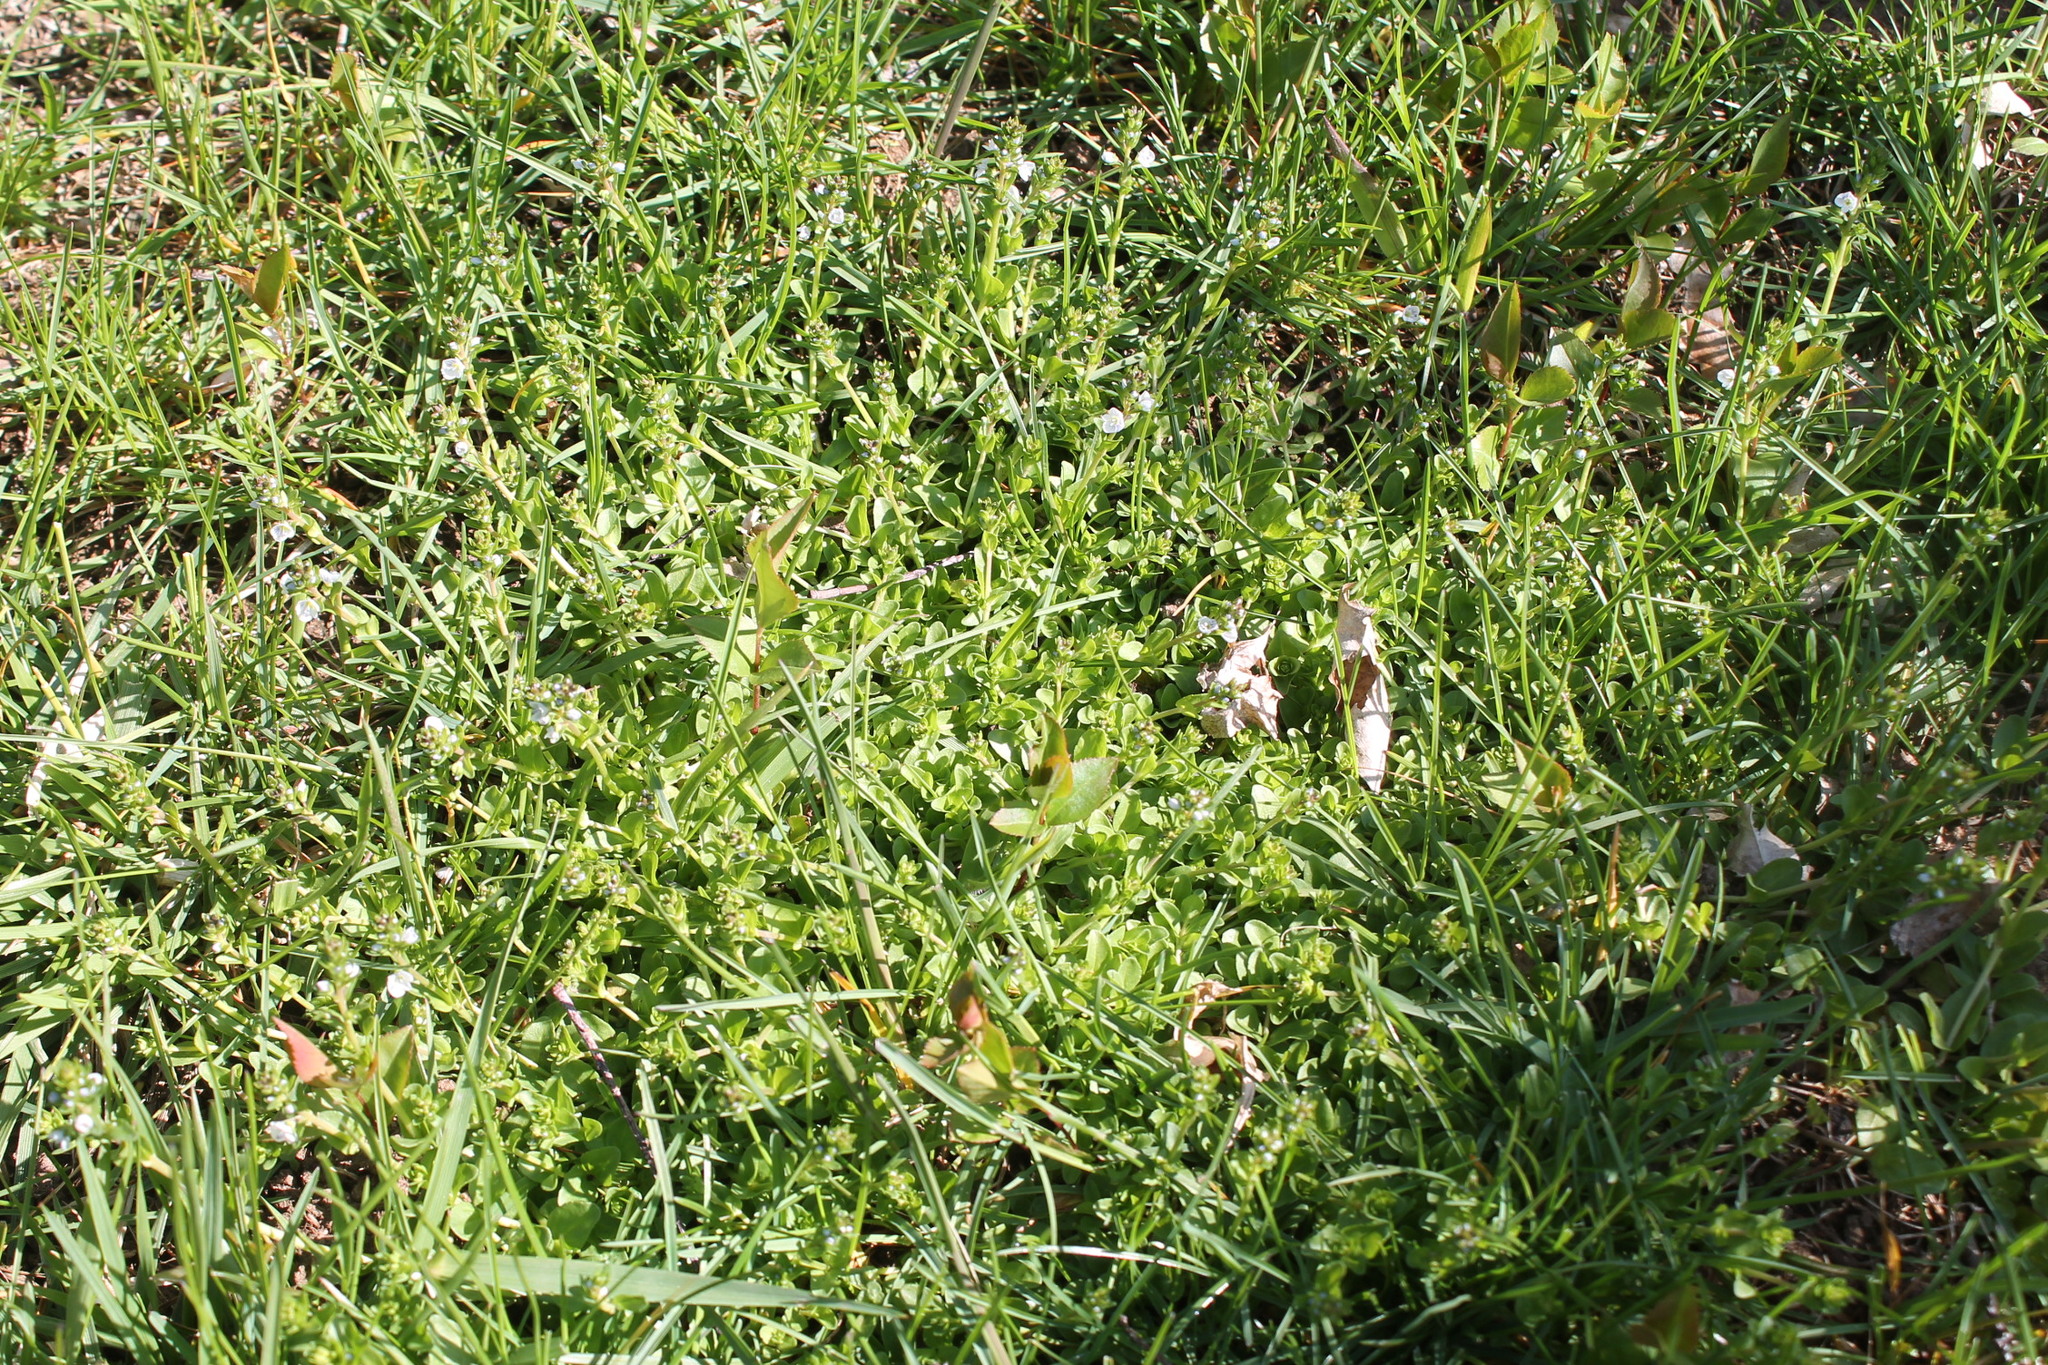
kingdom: Plantae
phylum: Tracheophyta
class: Magnoliopsida
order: Lamiales
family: Plantaginaceae
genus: Veronica
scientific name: Veronica serpyllifolia
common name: Thyme-leaved speedwell
